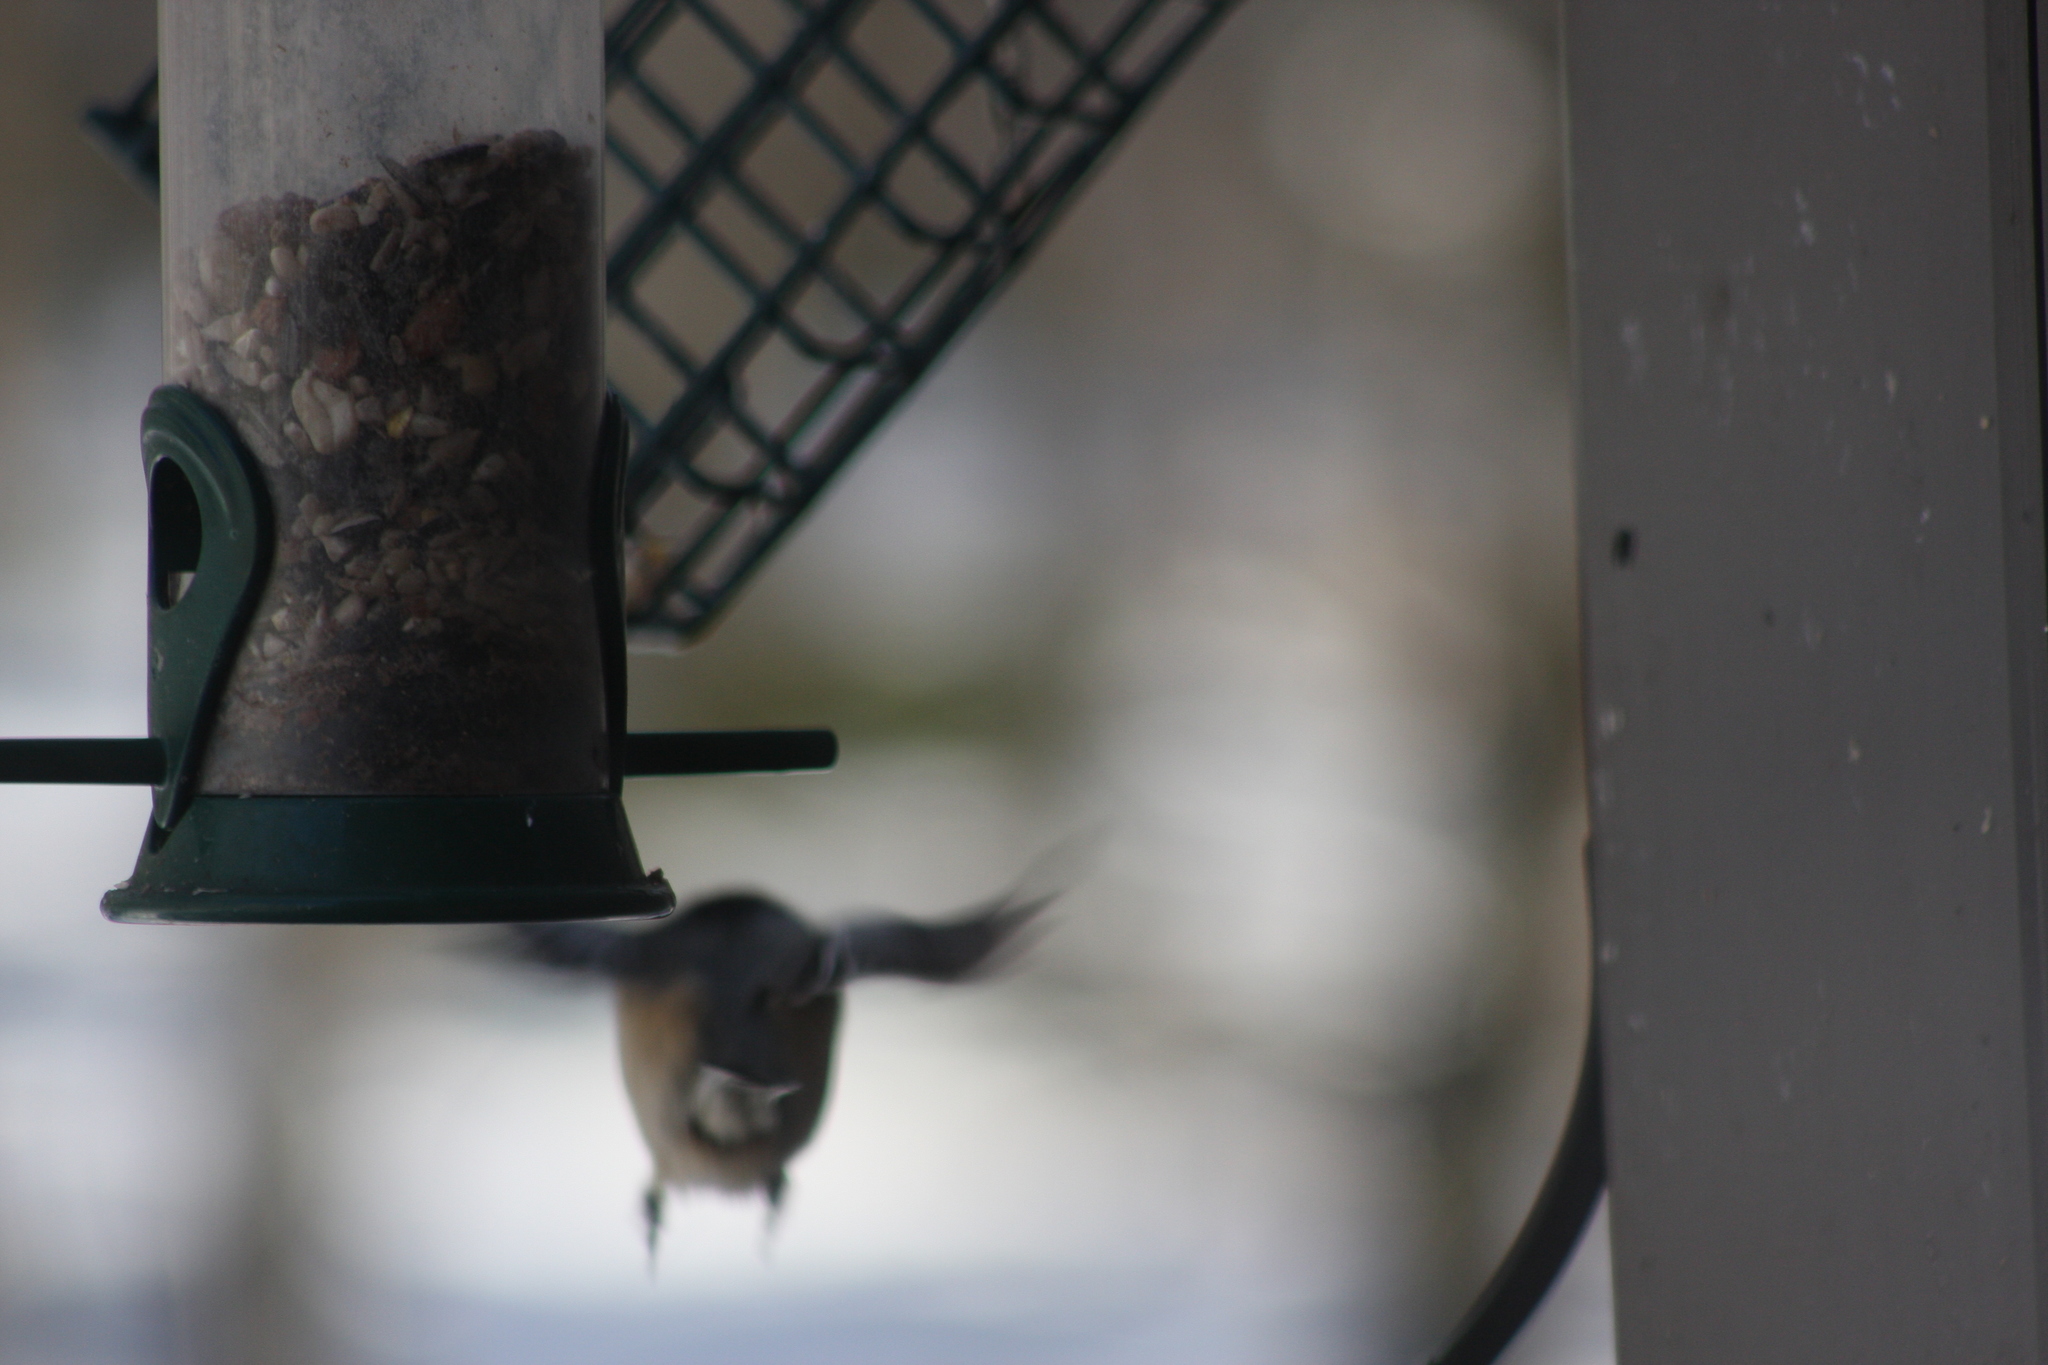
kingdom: Animalia
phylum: Chordata
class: Aves
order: Passeriformes
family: Sittidae
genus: Sitta
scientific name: Sitta canadensis
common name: Red-breasted nuthatch
